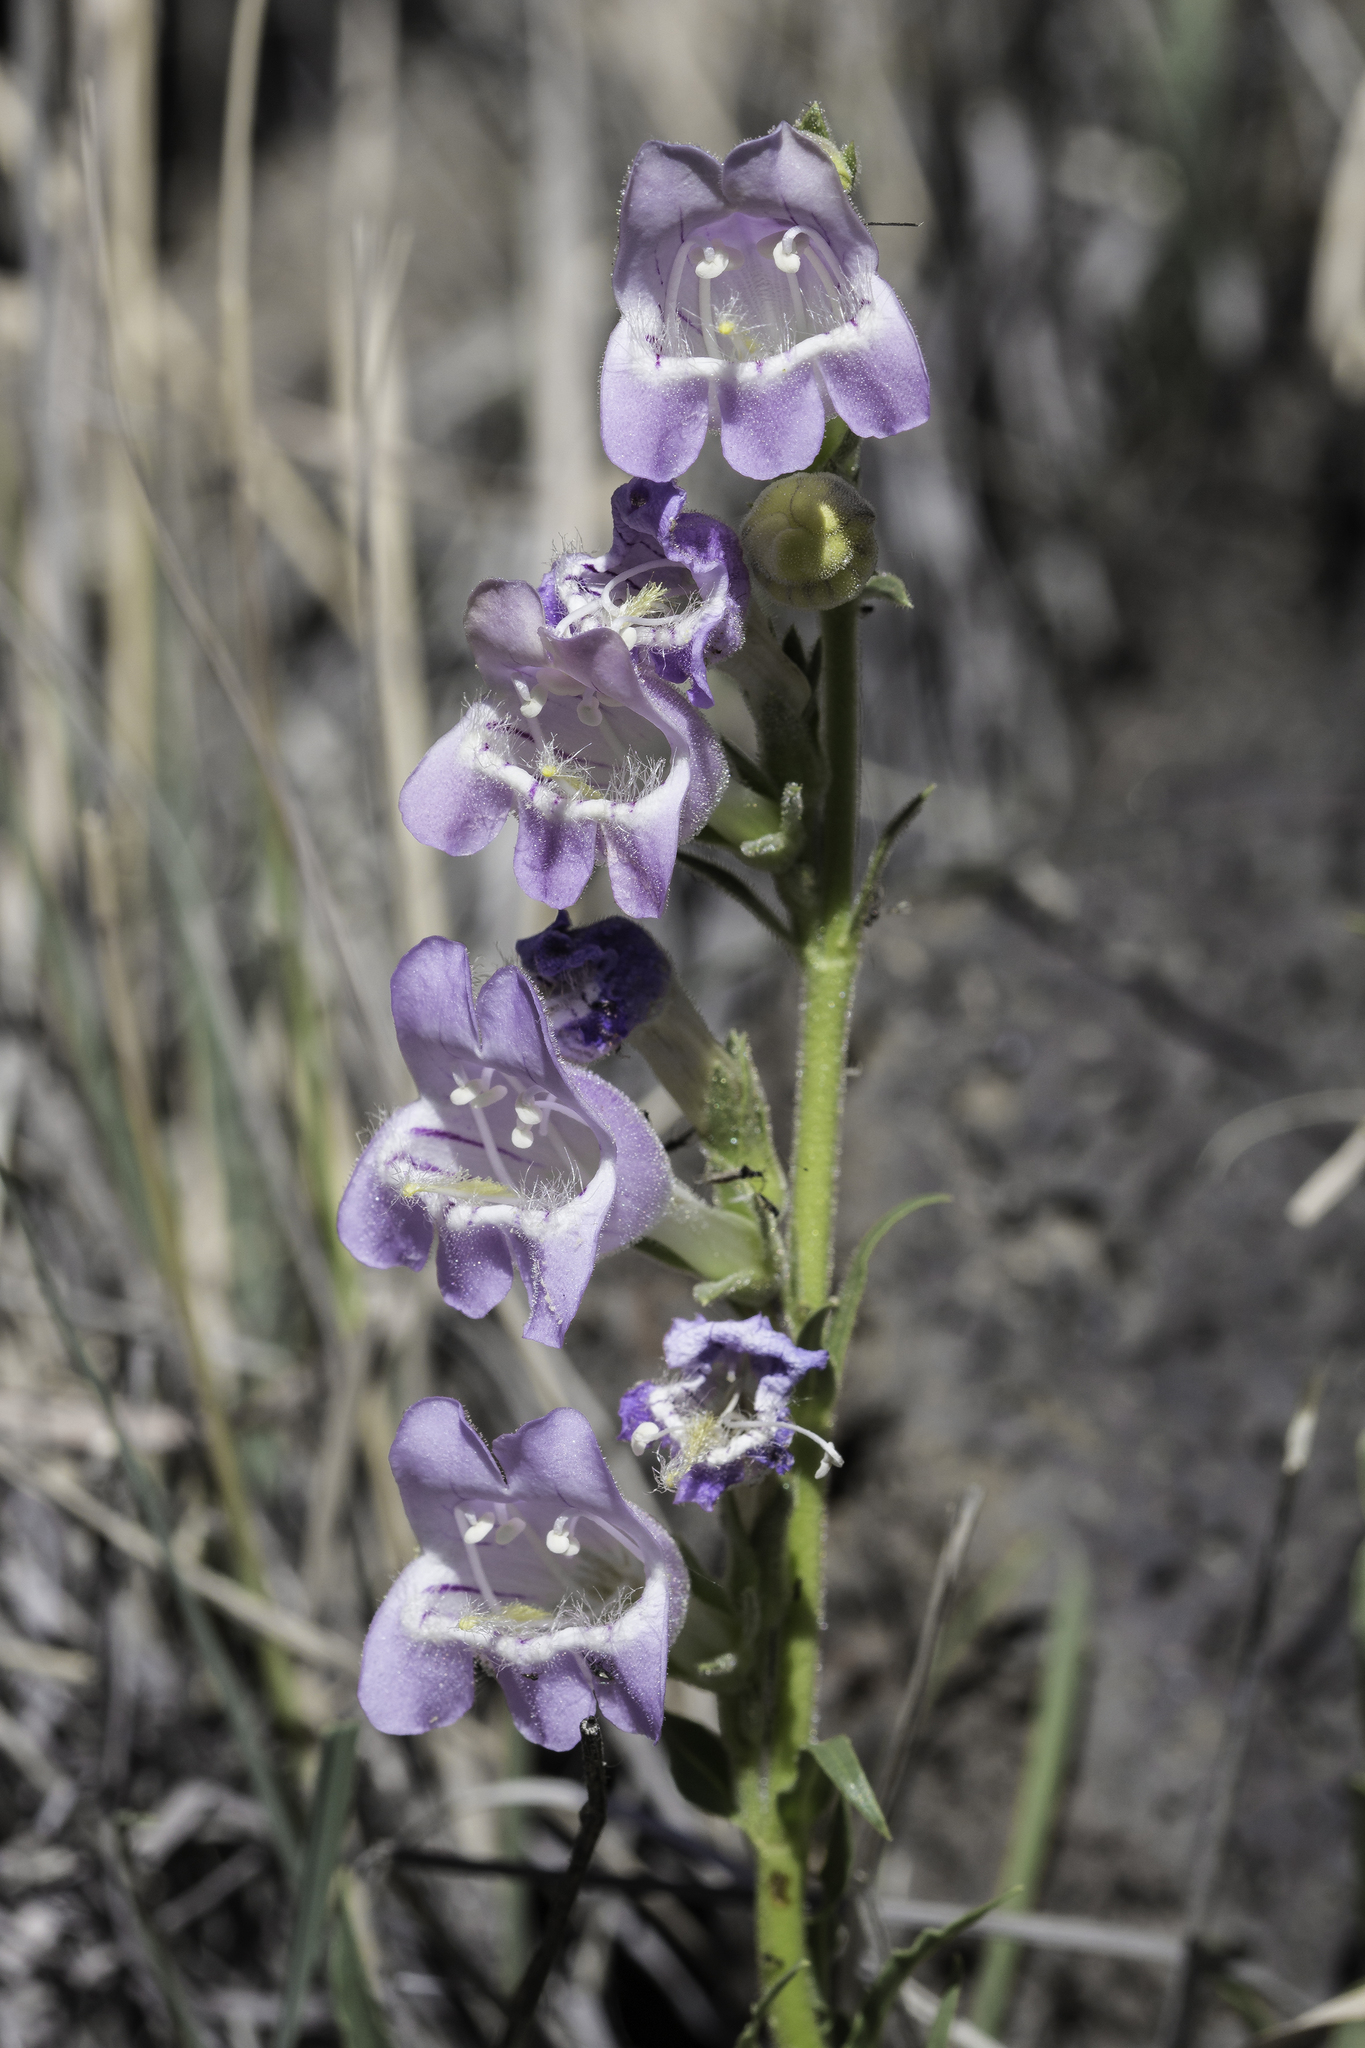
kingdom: Plantae
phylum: Tracheophyta
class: Magnoliopsida
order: Lamiales
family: Plantaginaceae
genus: Penstemon
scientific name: Penstemon jamesii
